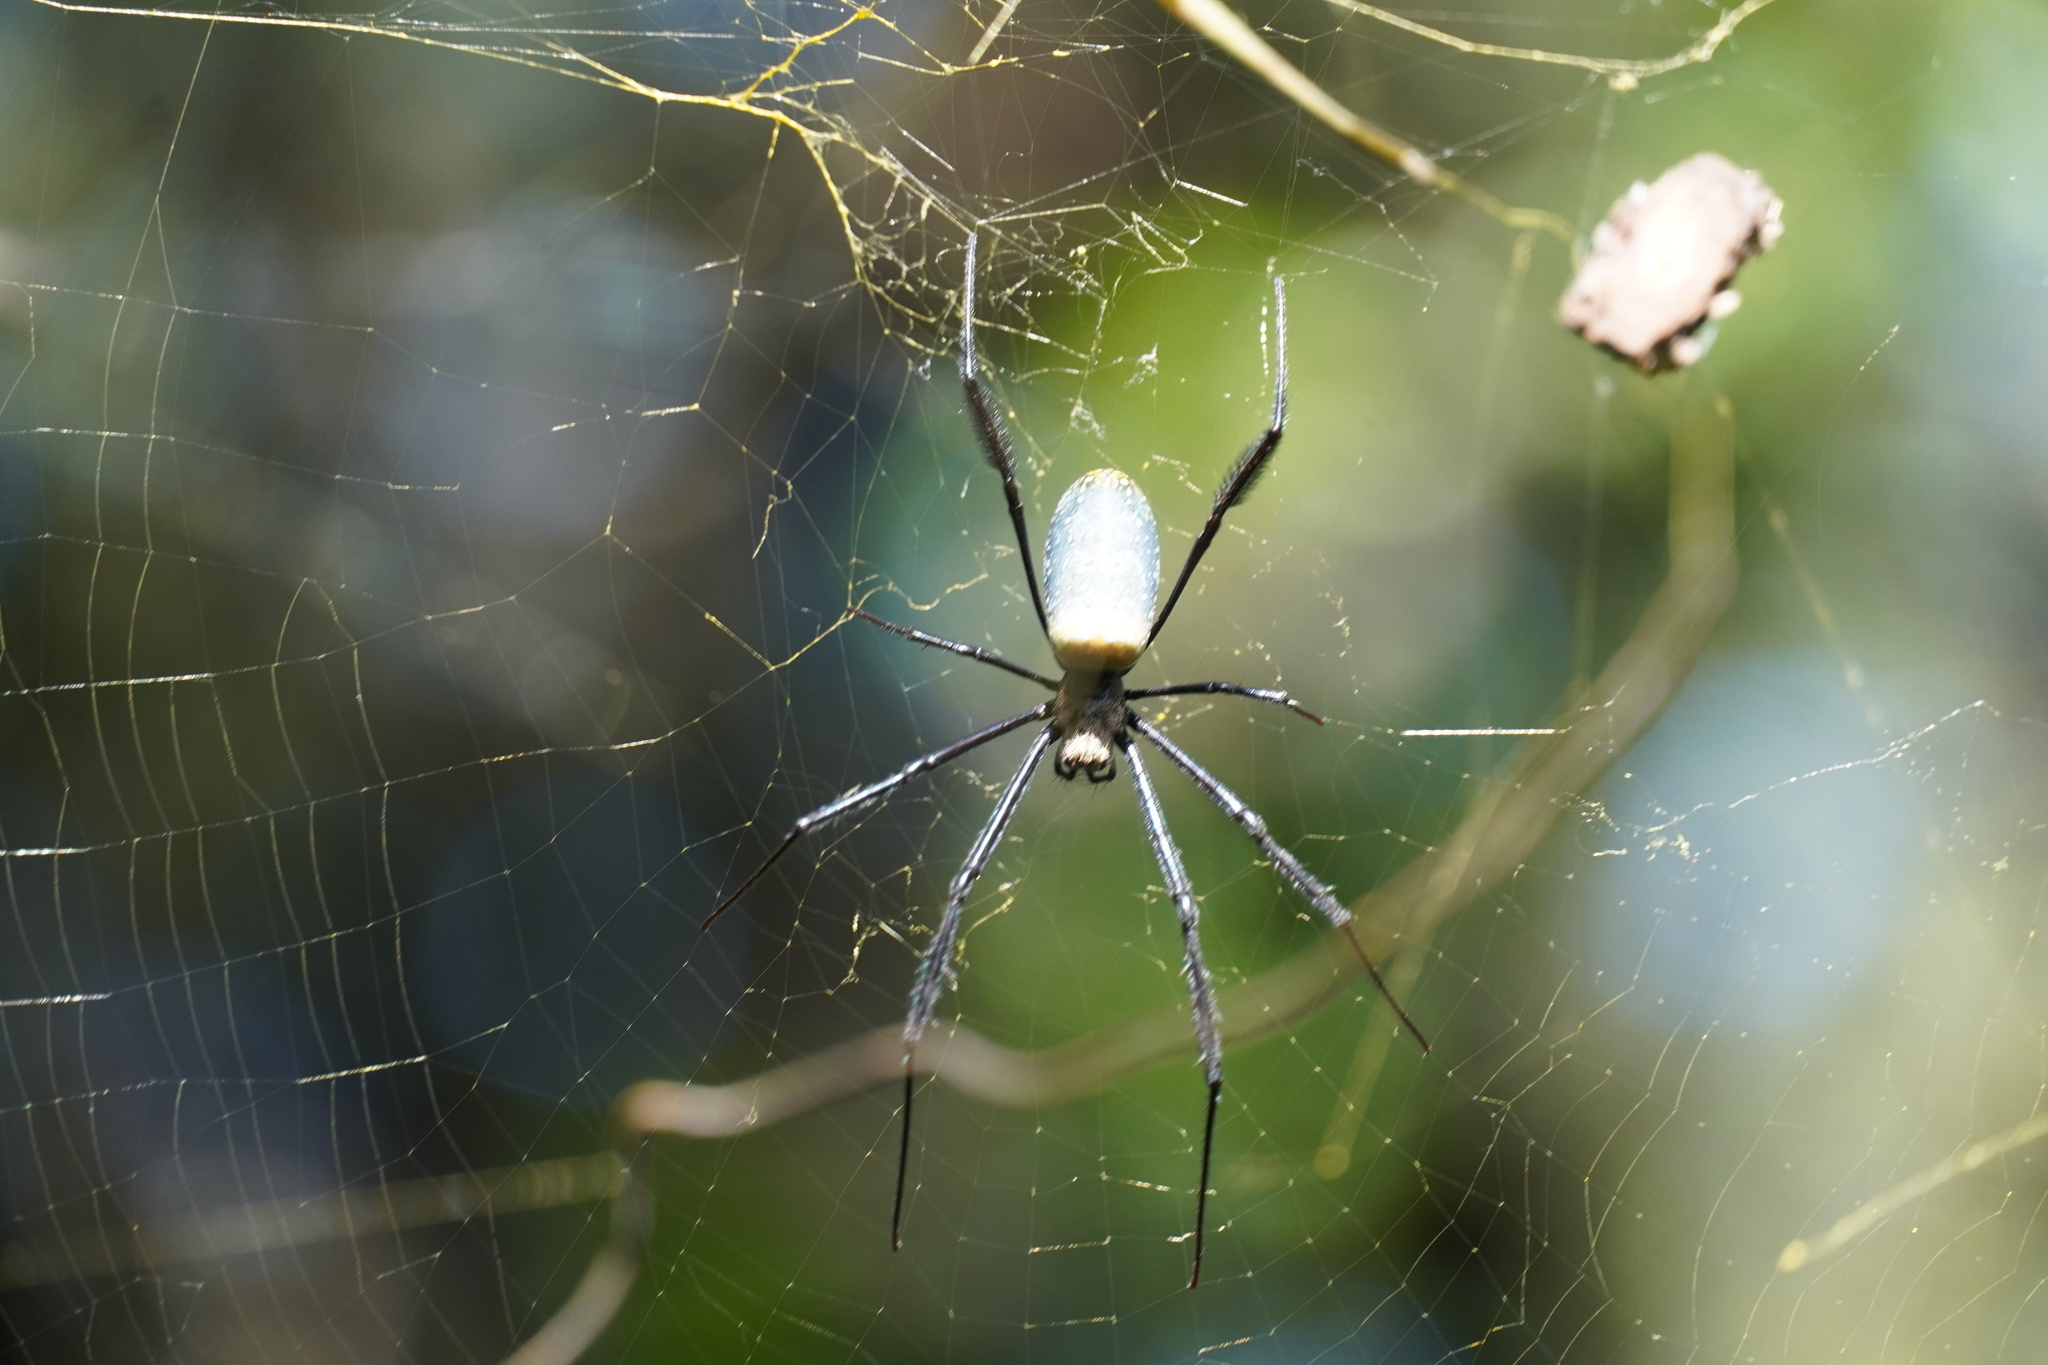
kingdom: Animalia
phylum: Arthropoda
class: Arachnida
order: Araneae
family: Araneidae
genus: Trichonephila
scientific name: Trichonephila fenestrata
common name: Hairy golden orb weaver
